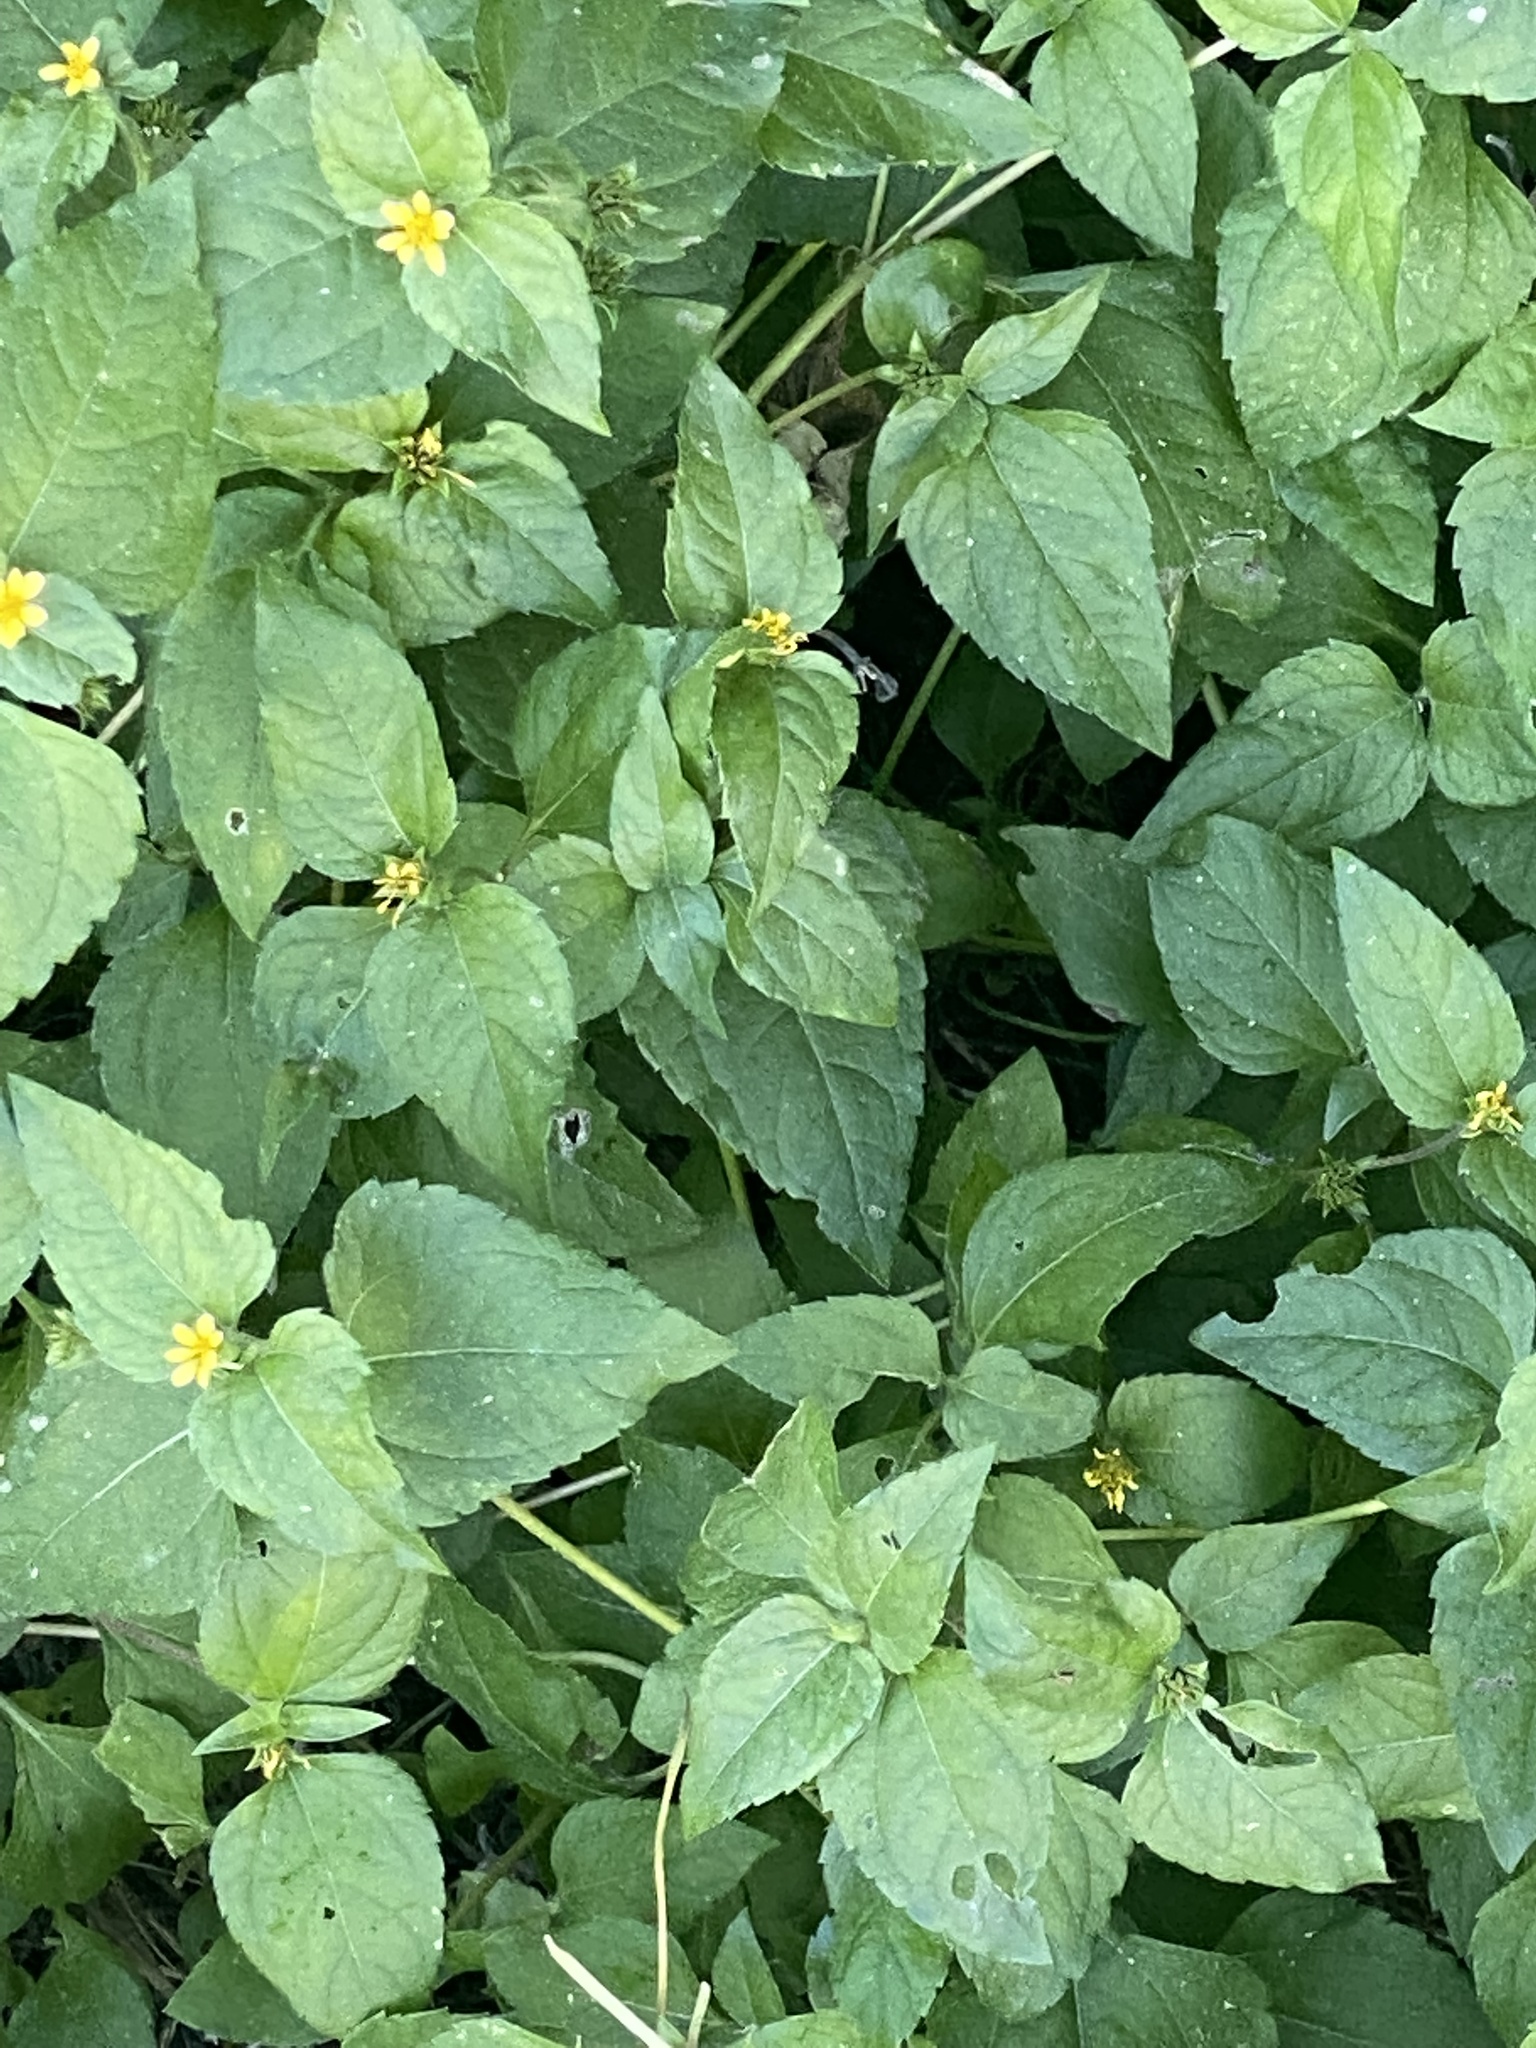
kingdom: Plantae
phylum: Tracheophyta
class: Magnoliopsida
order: Asterales
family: Asteraceae
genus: Calyptocarpus
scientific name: Calyptocarpus vialis
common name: Straggler daisy
